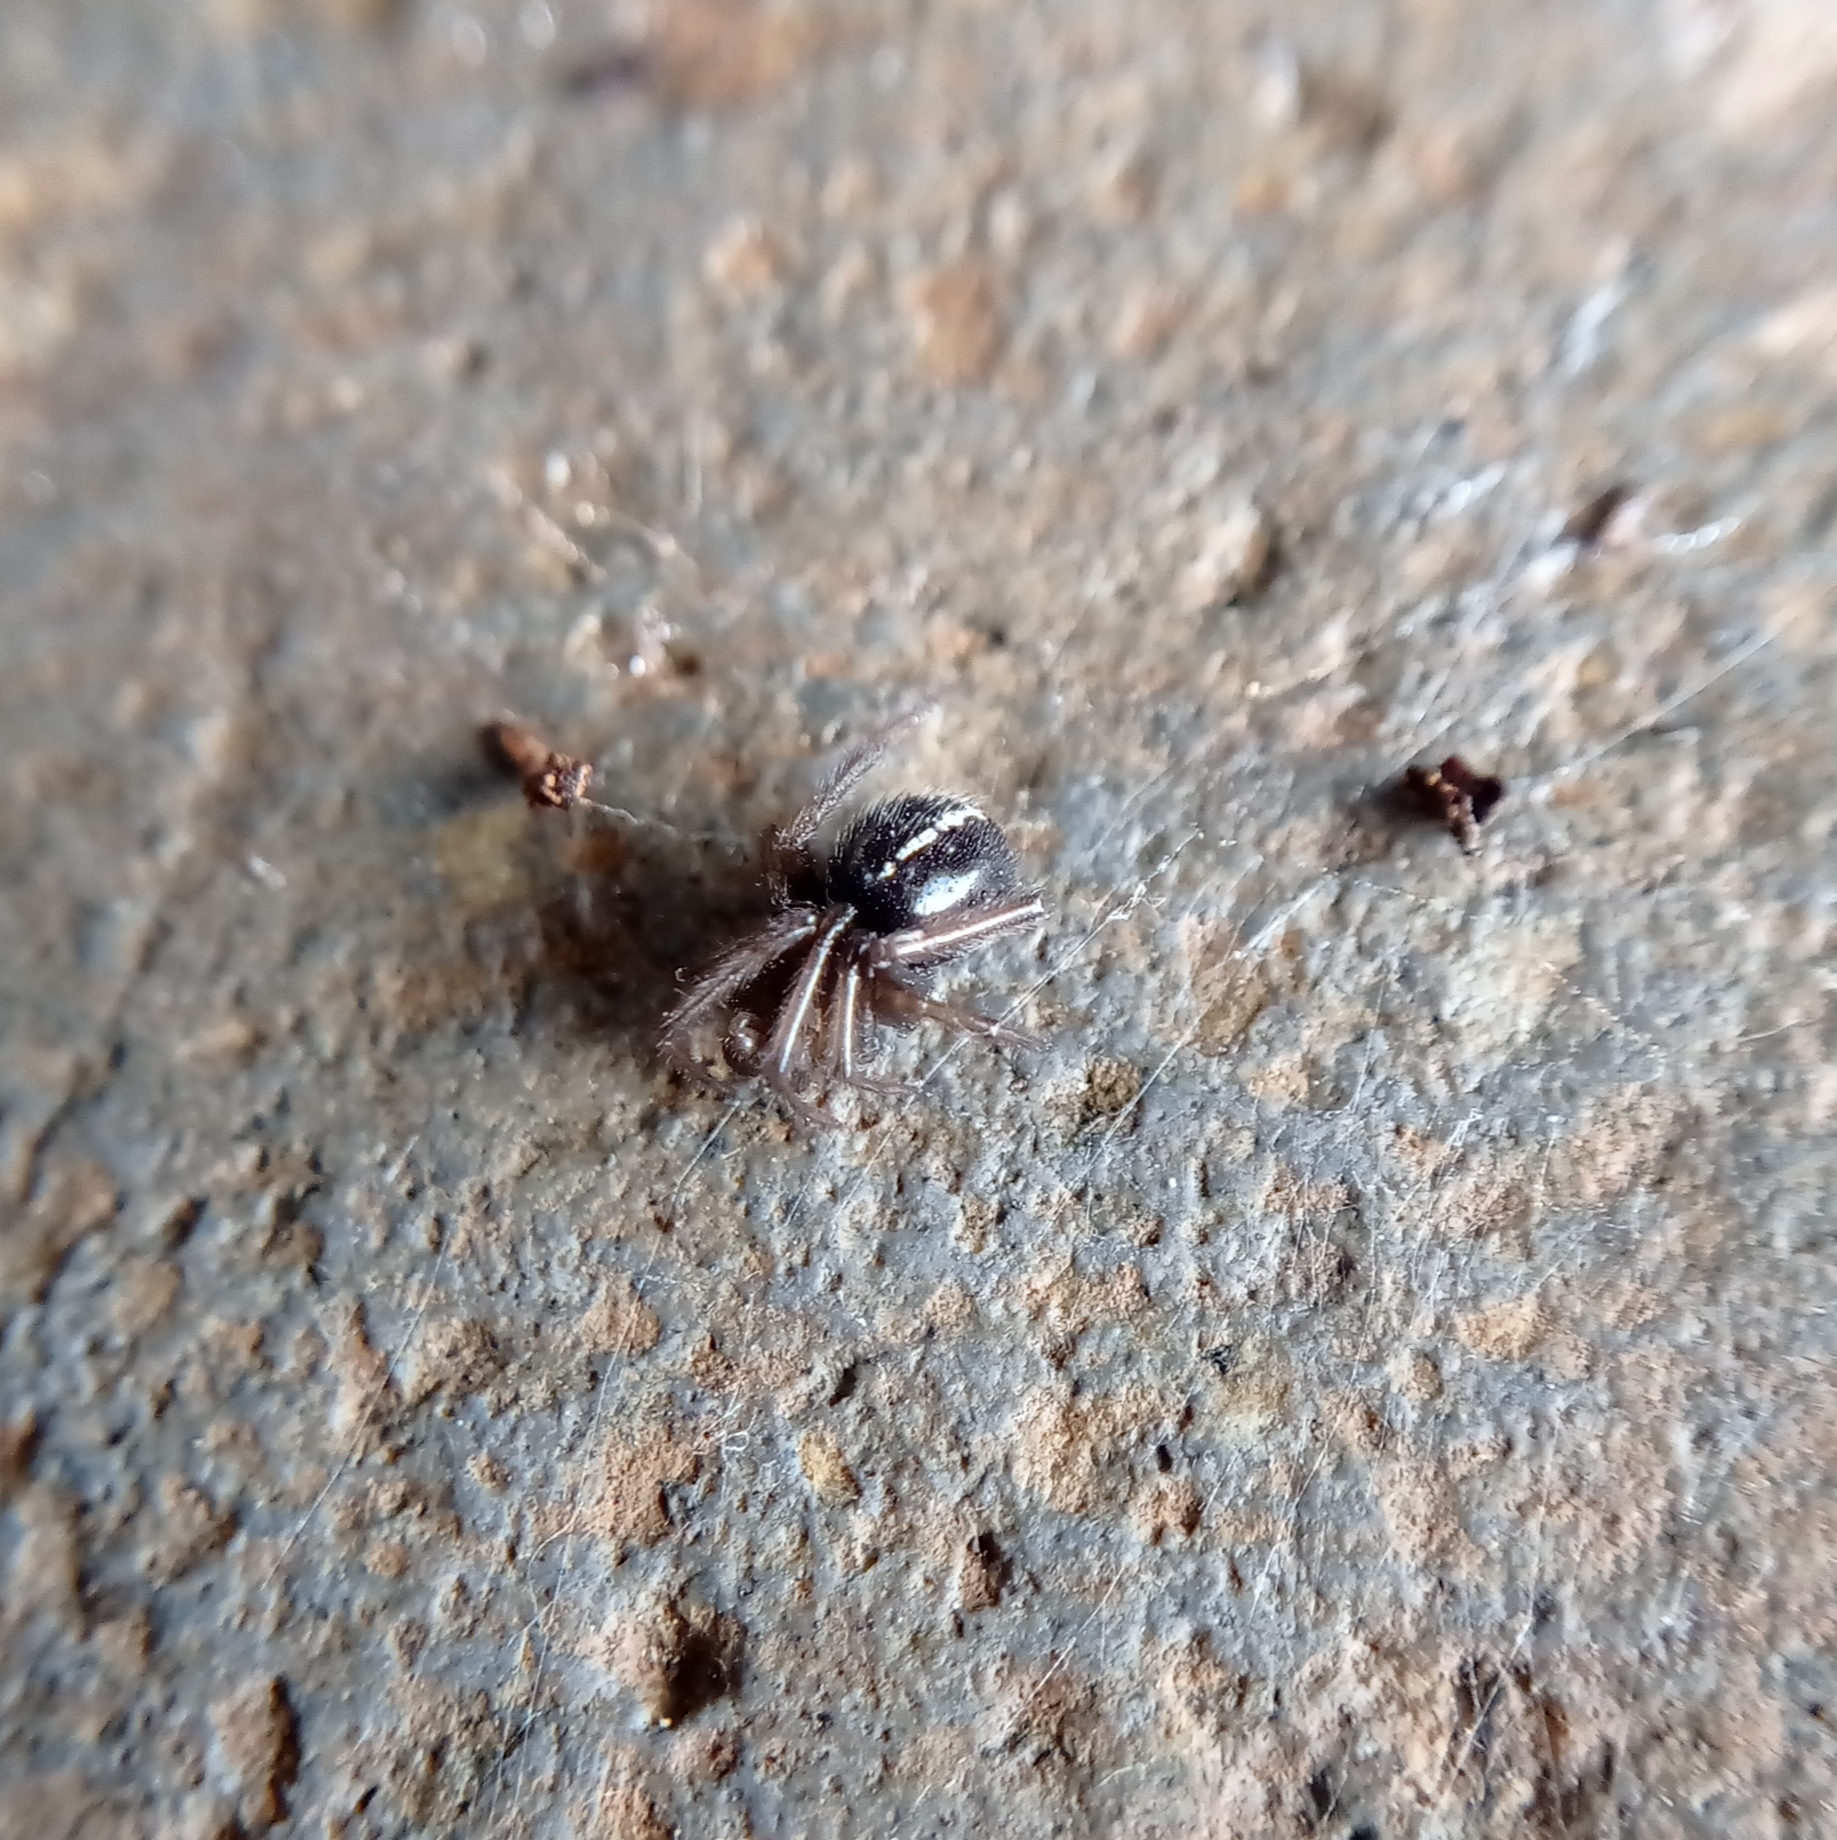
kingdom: Animalia
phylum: Arthropoda
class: Arachnida
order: Araneae
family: Theridiidae
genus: Steatoda
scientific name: Steatoda sabulosa
